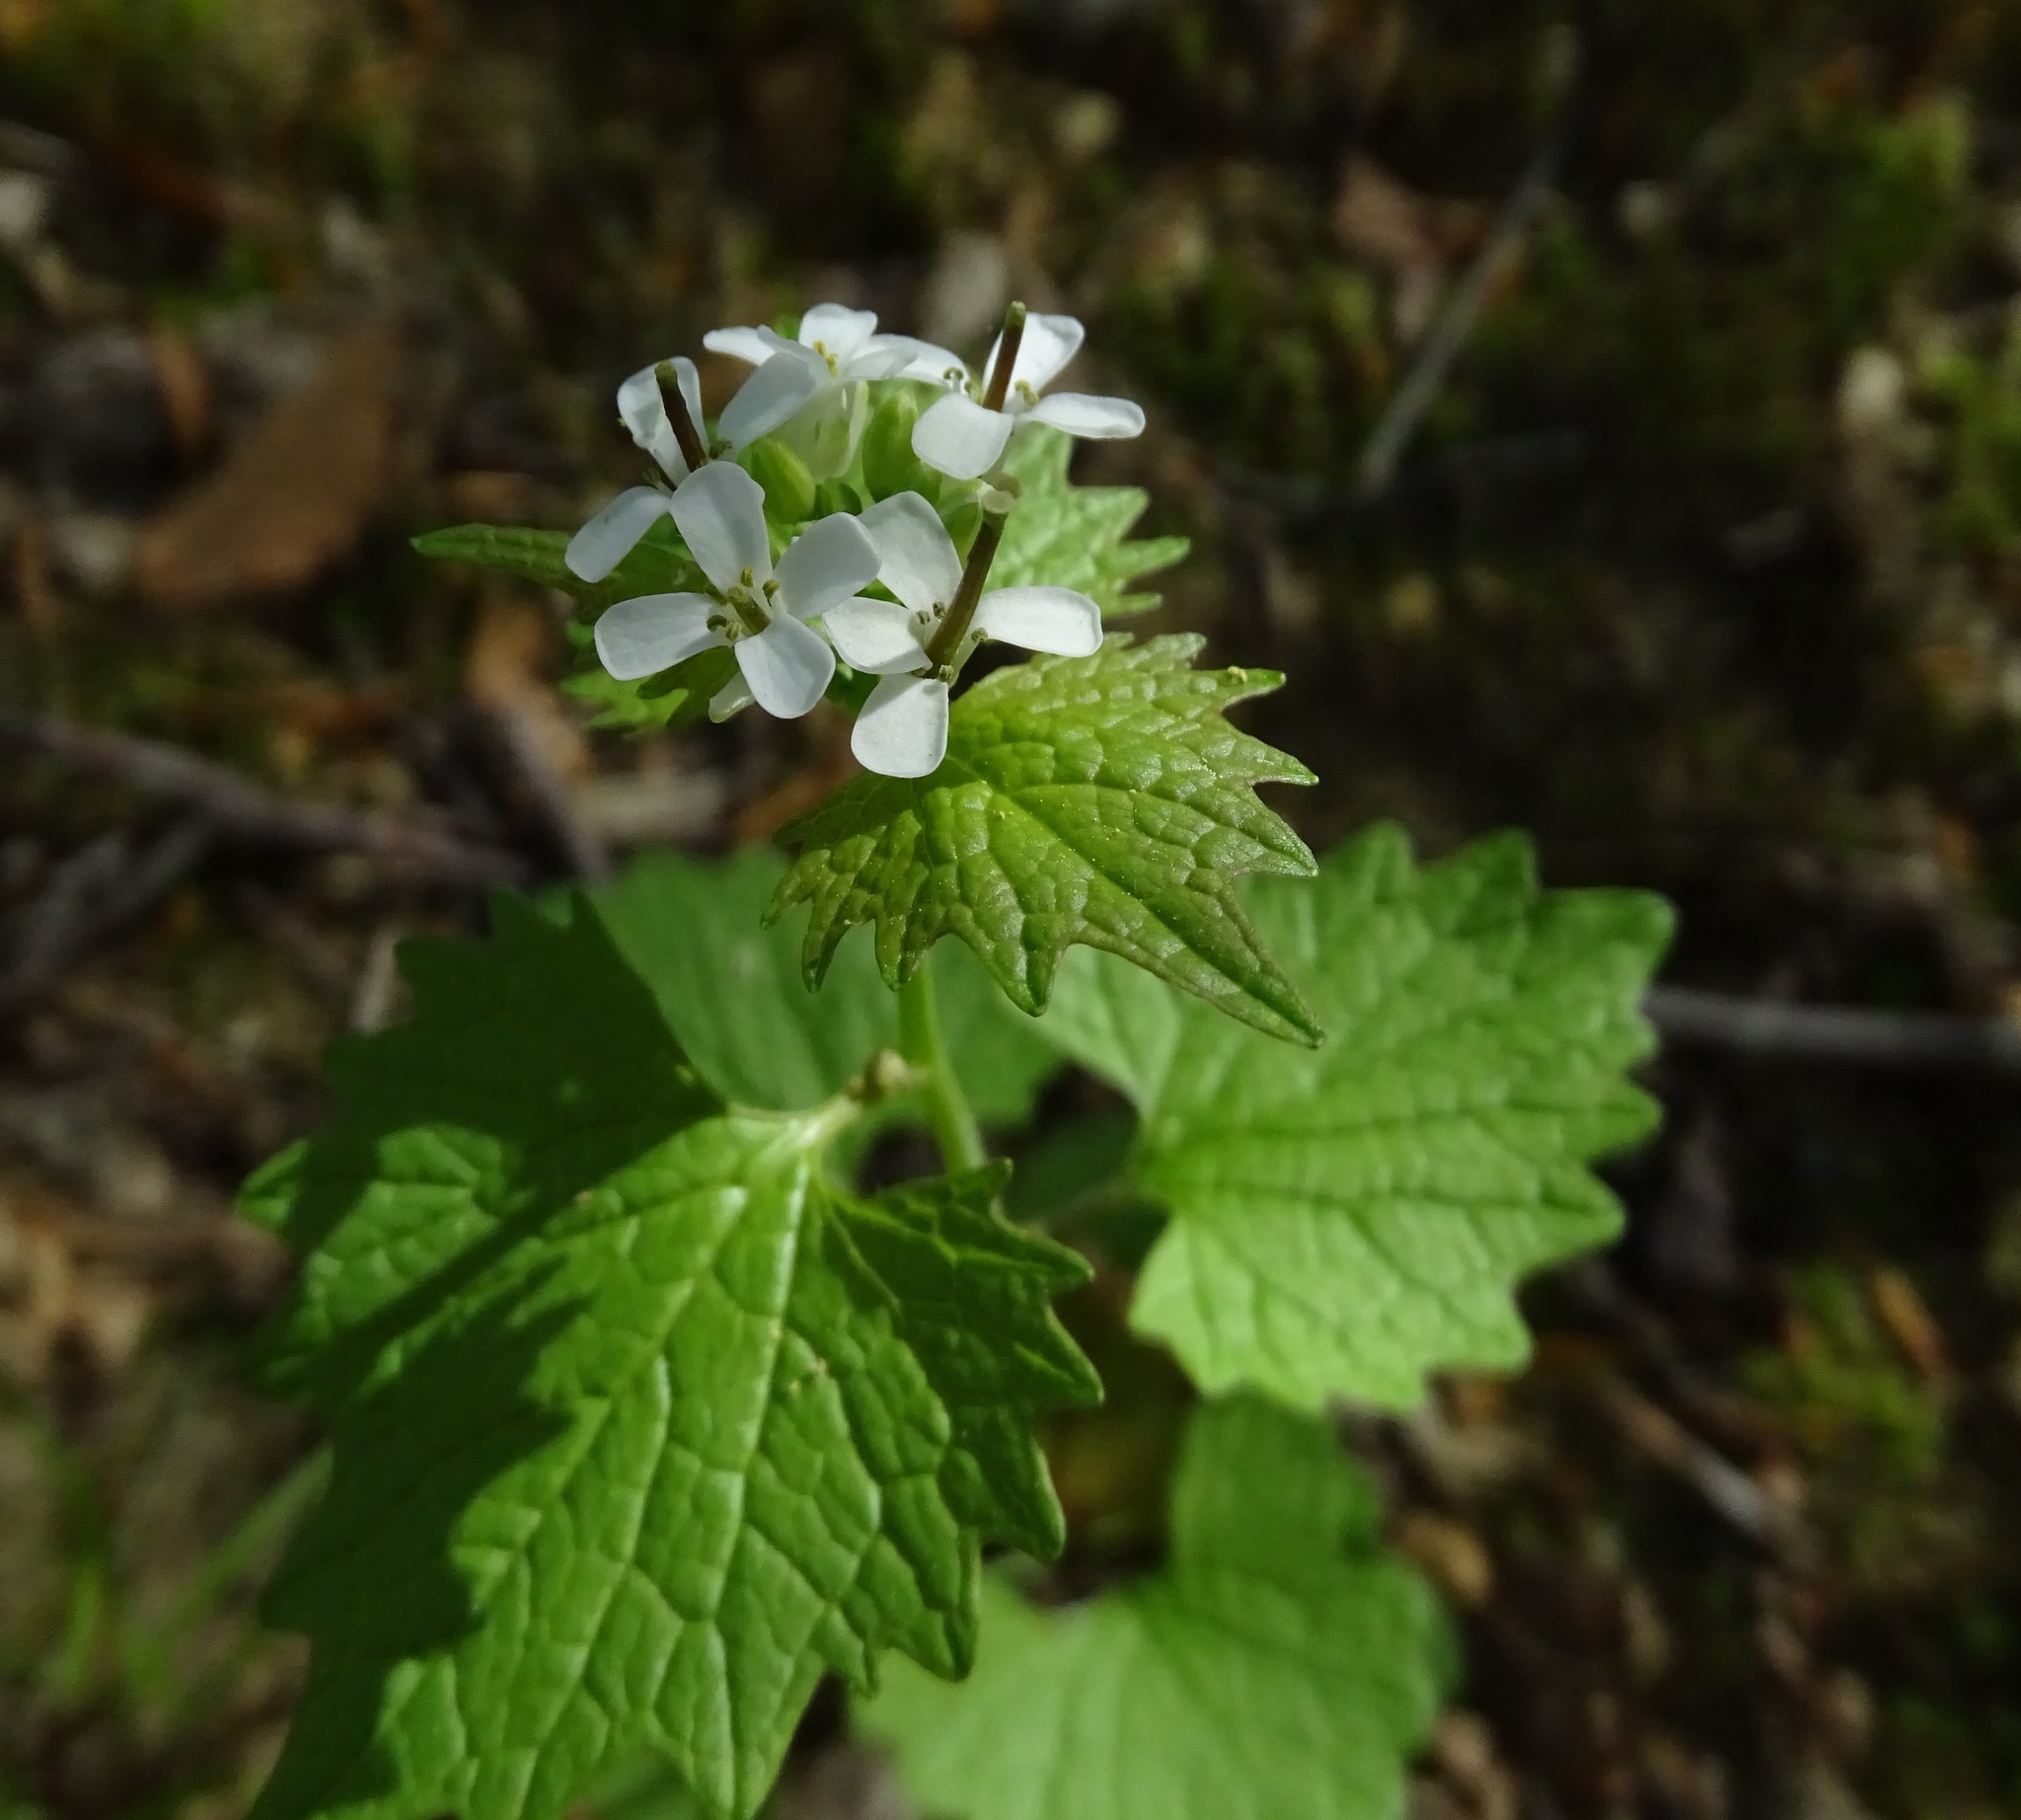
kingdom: Plantae
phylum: Tracheophyta
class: Magnoliopsida
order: Brassicales
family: Brassicaceae
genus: Alliaria
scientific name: Alliaria petiolata
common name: Garlic mustard
